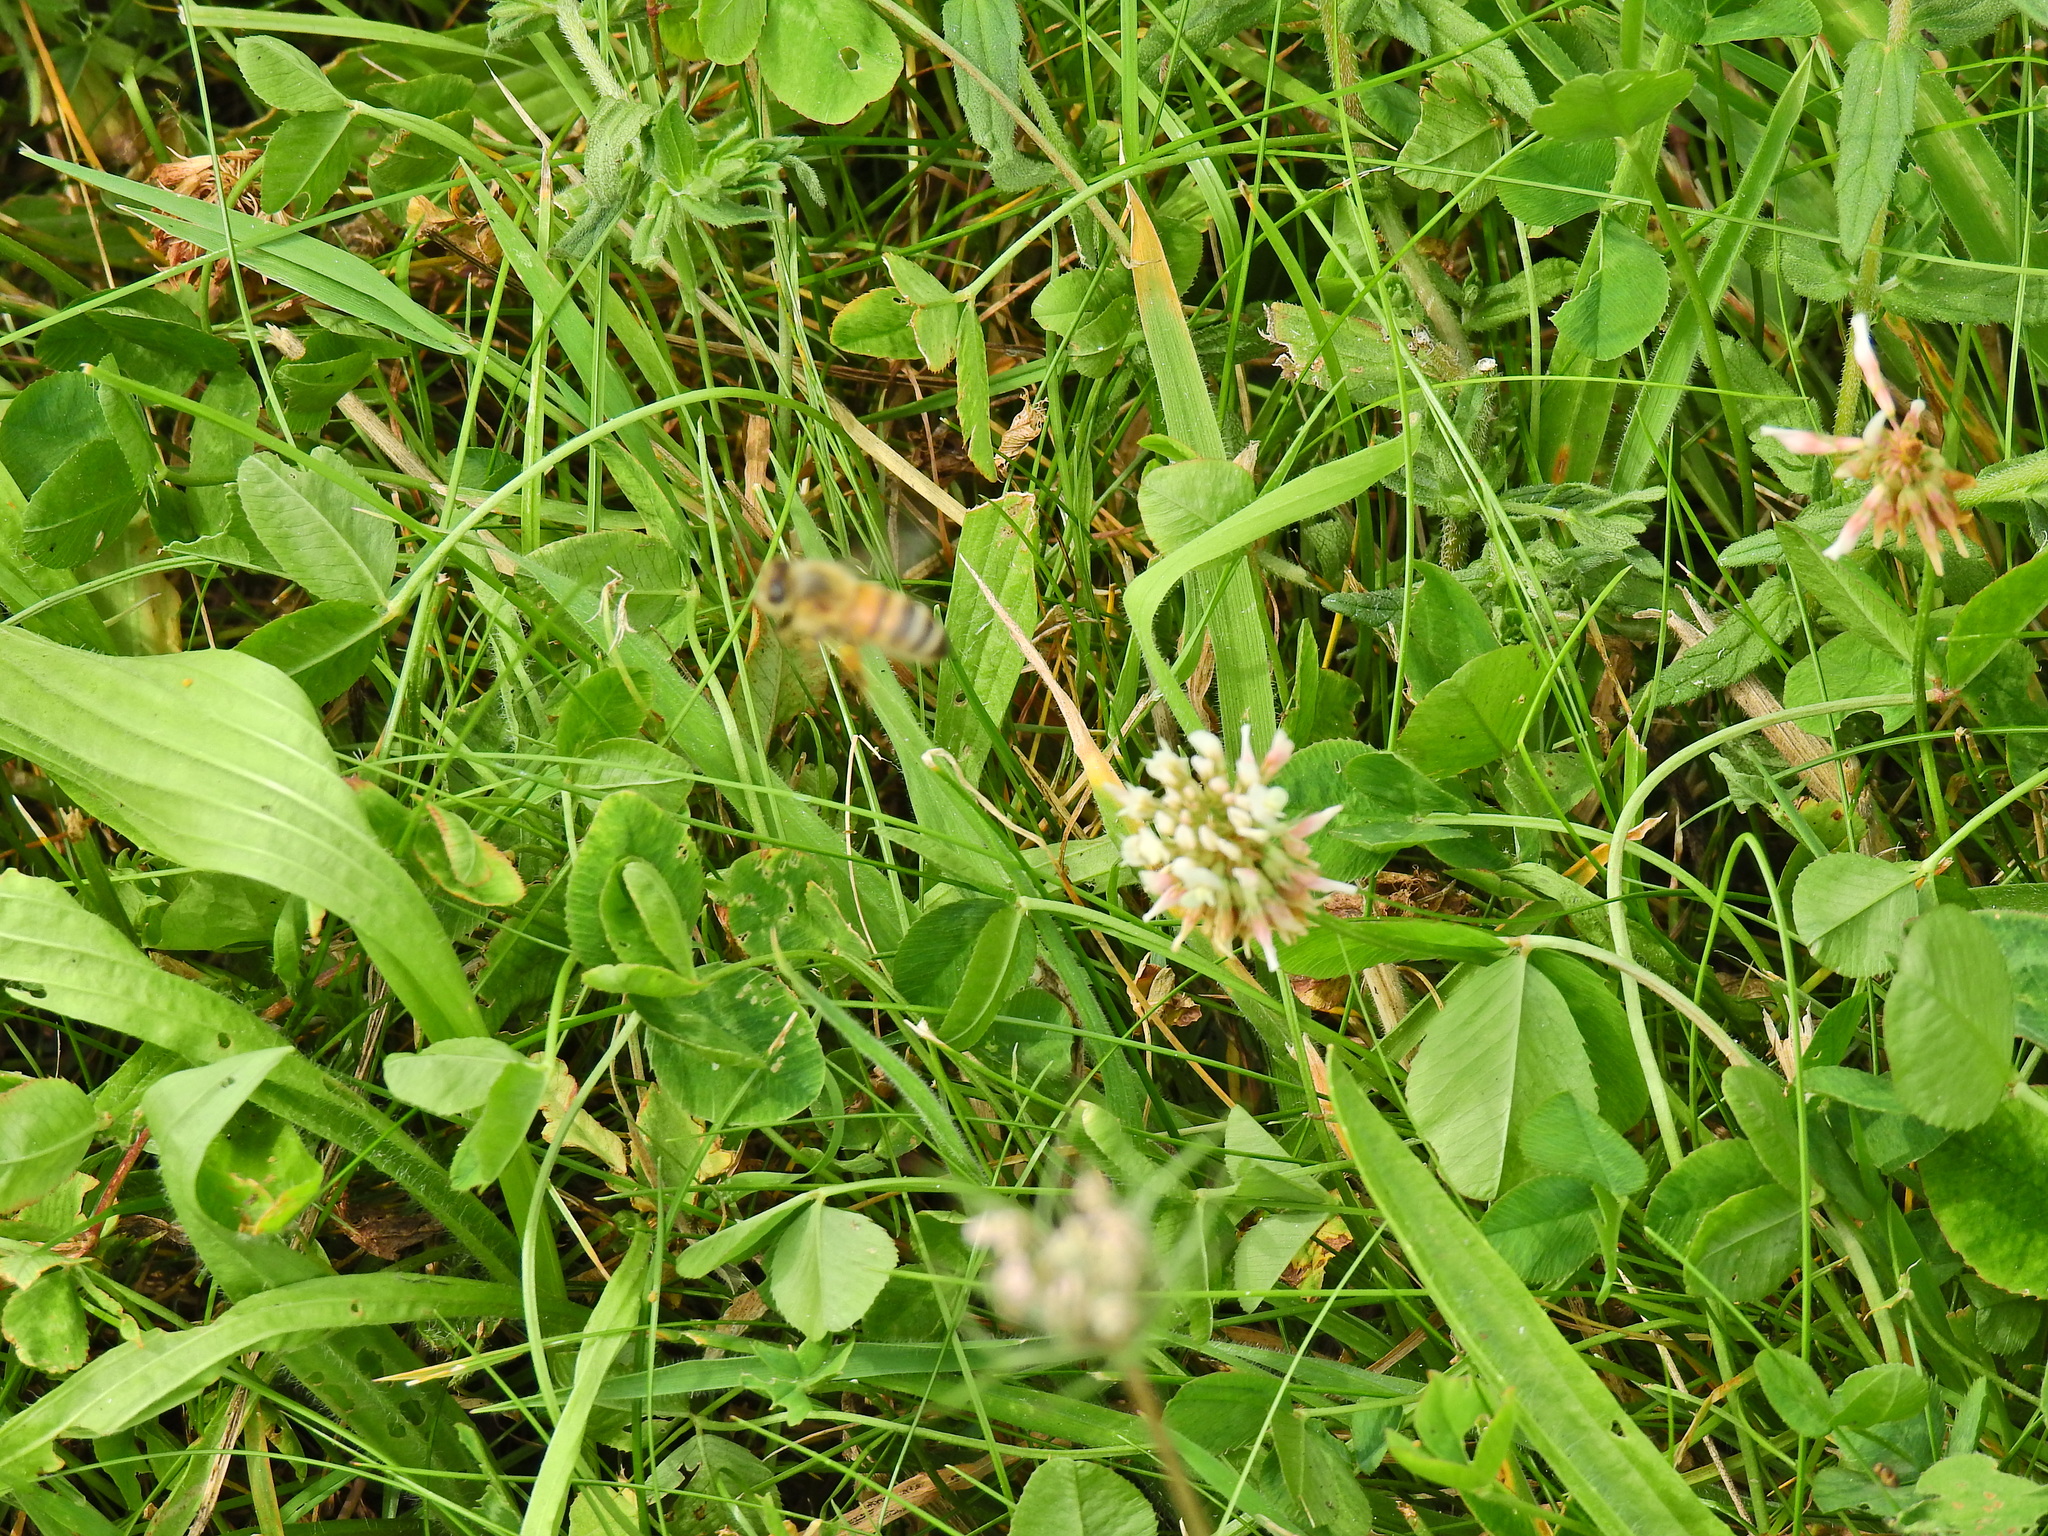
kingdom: Animalia
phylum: Arthropoda
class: Insecta
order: Hymenoptera
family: Apidae
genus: Apis
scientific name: Apis mellifera
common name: Honey bee
